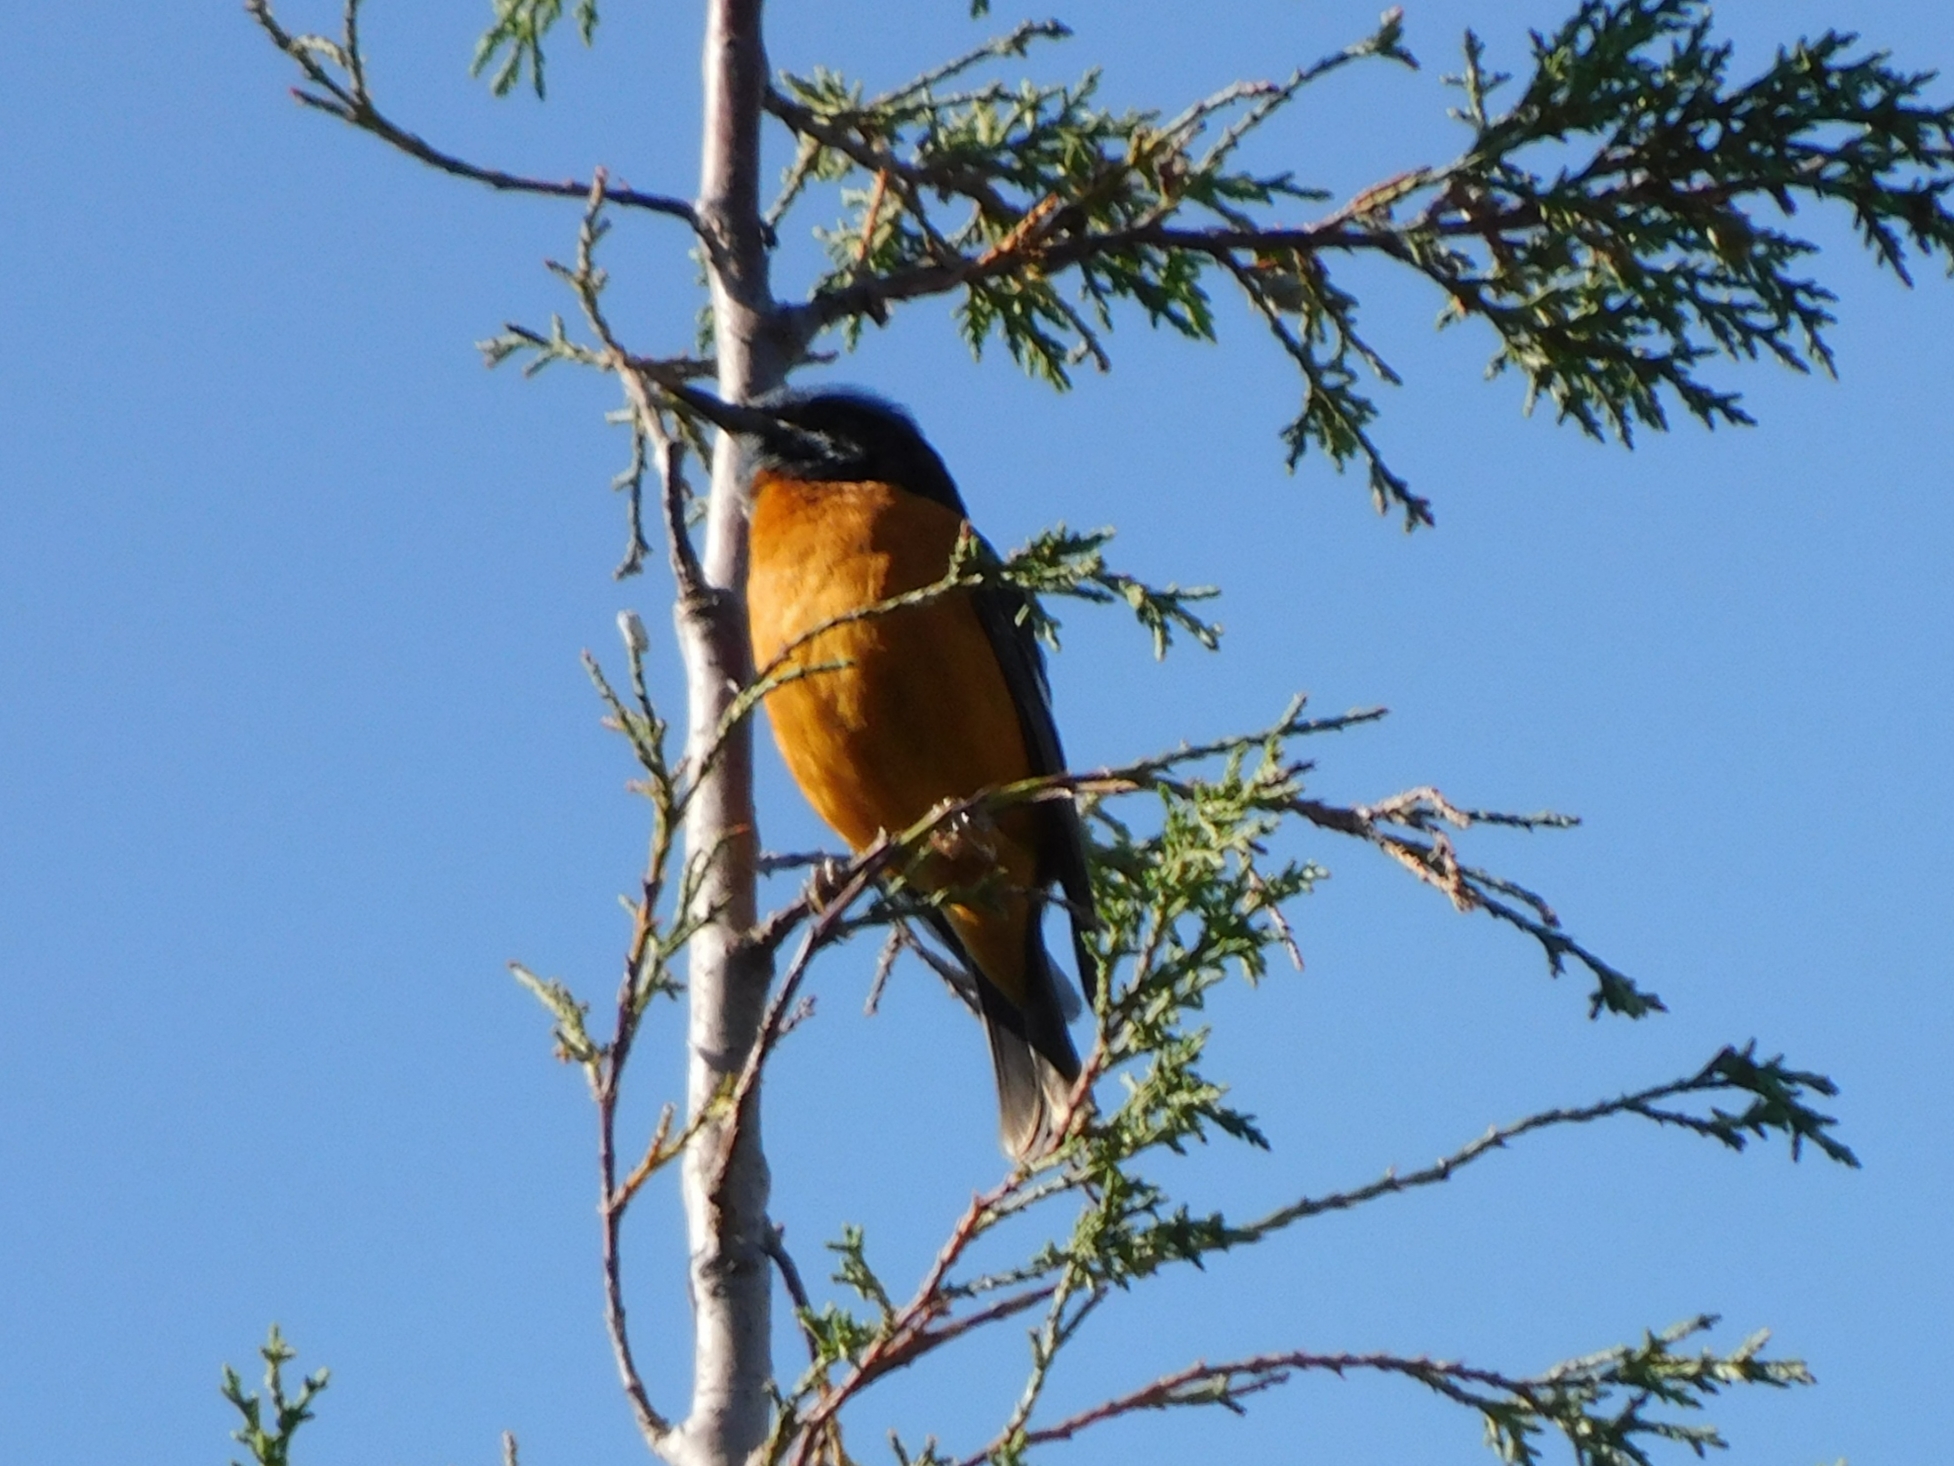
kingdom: Animalia
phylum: Chordata
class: Aves
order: Passeriformes
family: Muscicapidae
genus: Monticola
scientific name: Monticola cinclorhynchus
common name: Blue-capped rock thrush
